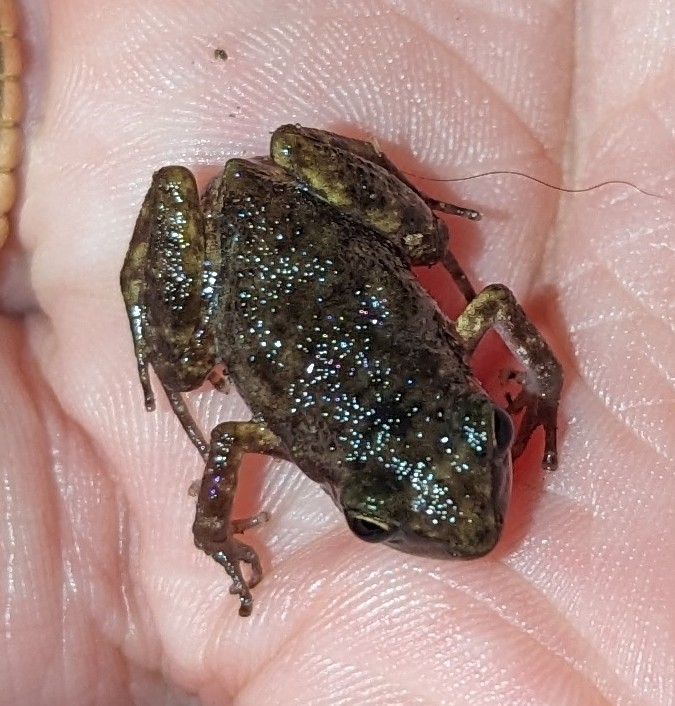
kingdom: Animalia
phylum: Chordata
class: Amphibia
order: Anura
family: Eleutherodactylidae
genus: Eleutherodactylus
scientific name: Eleutherodactylus campi
